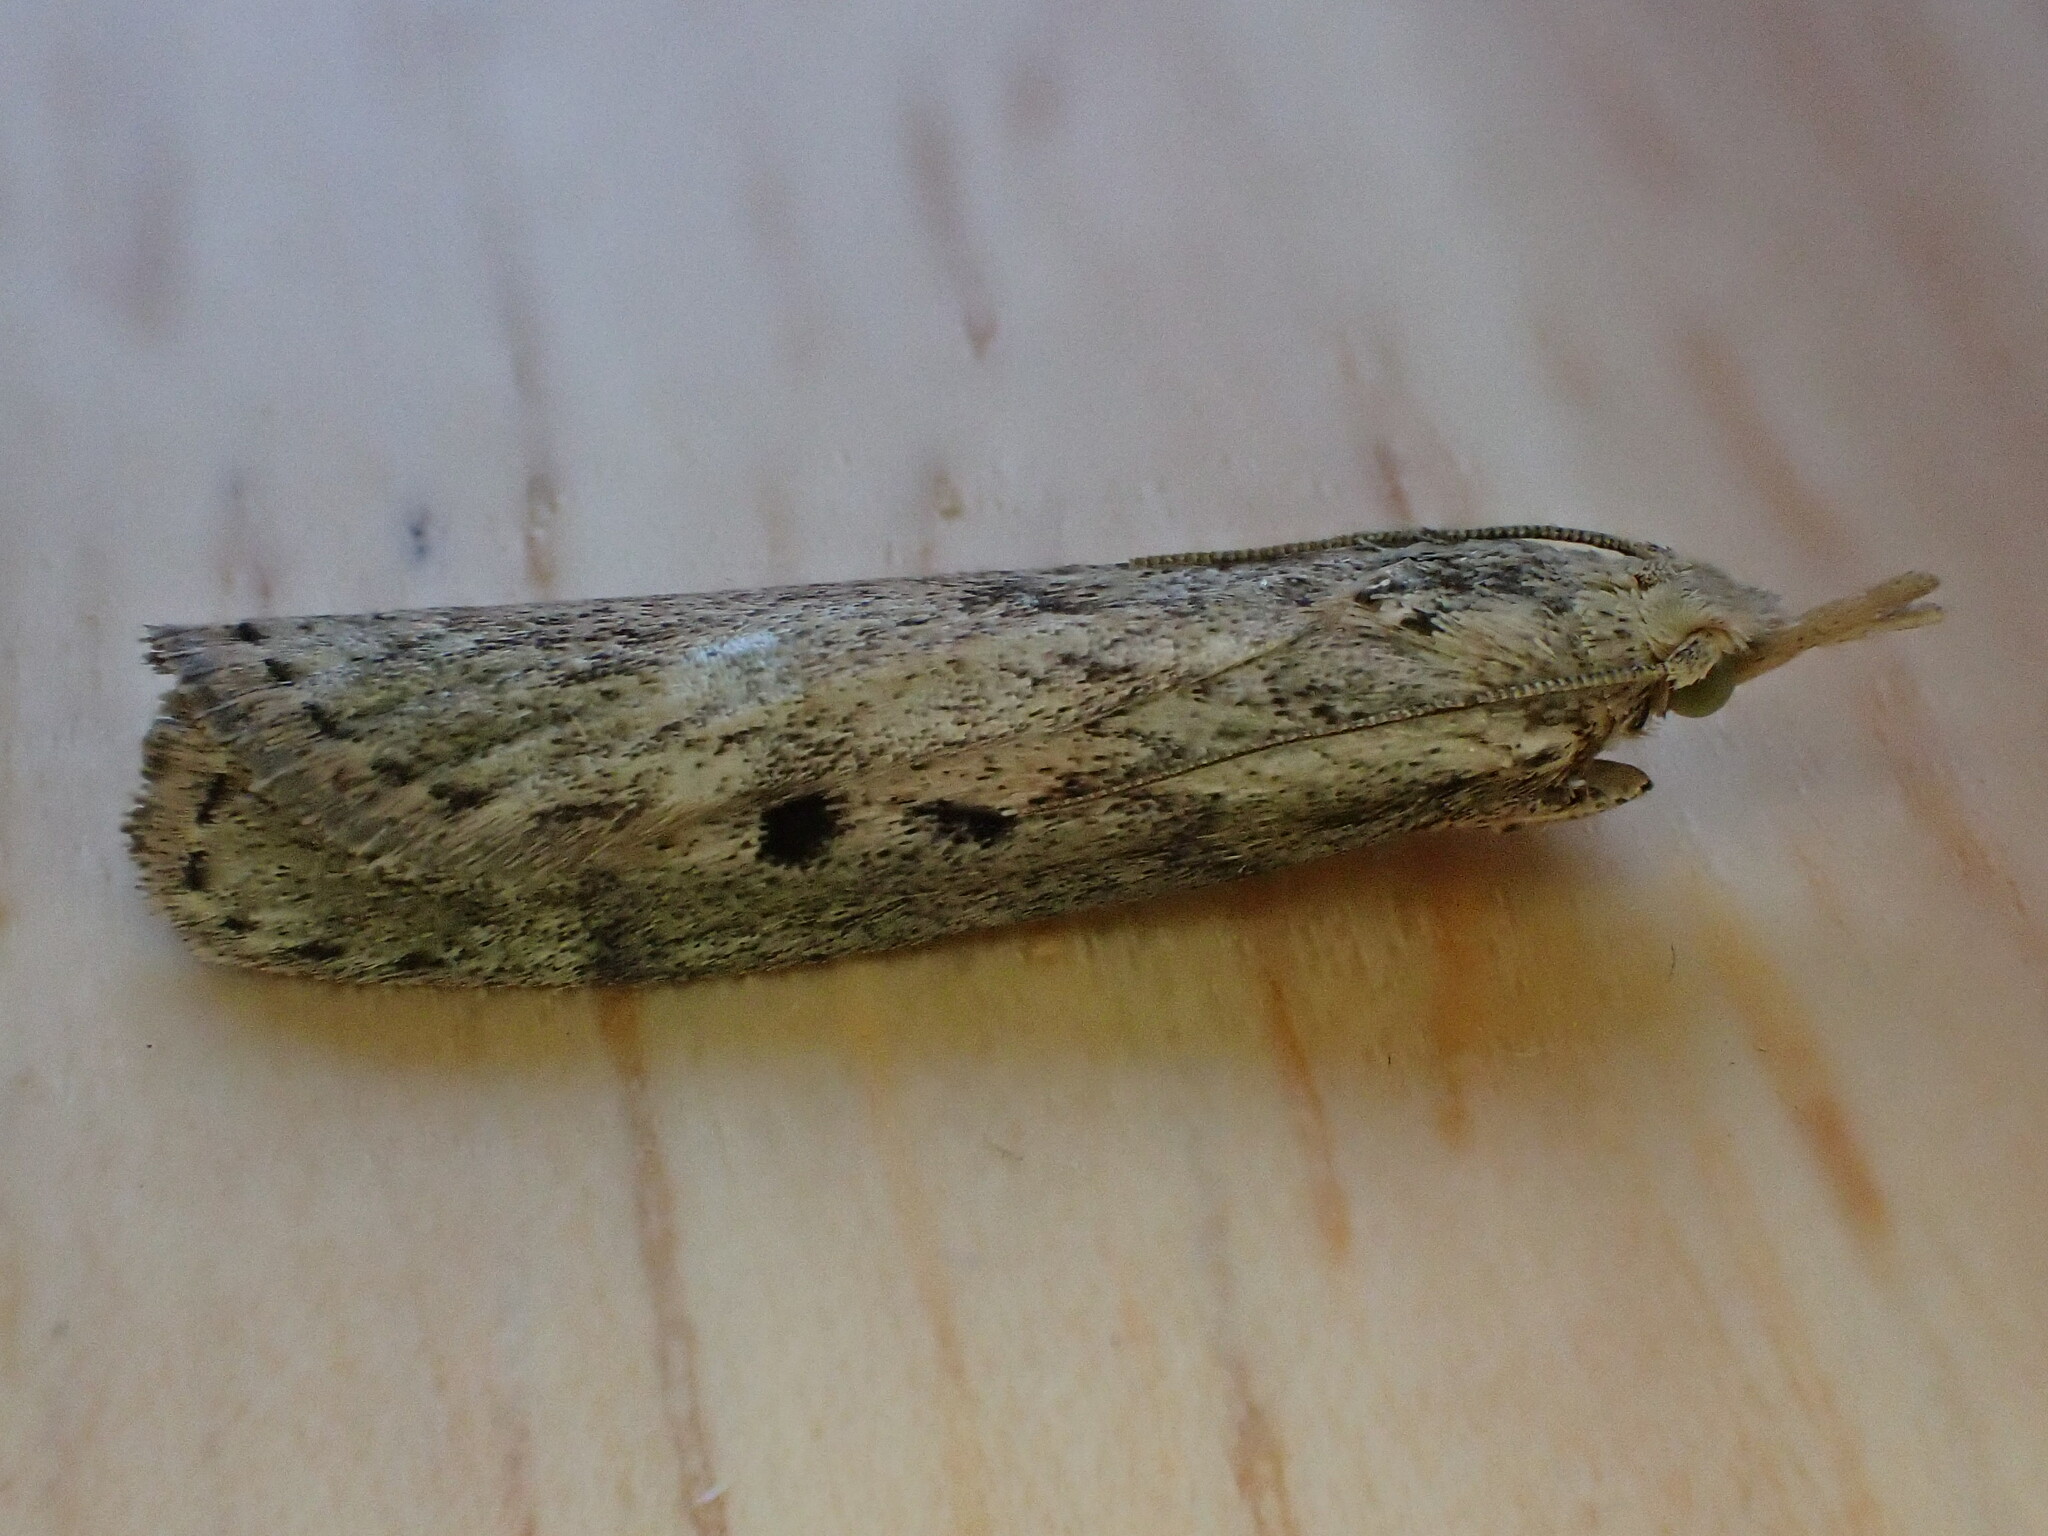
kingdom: Animalia
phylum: Arthropoda
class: Insecta
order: Lepidoptera
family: Pyralidae
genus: Aphomia
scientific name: Aphomia sociella
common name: Bee moth
